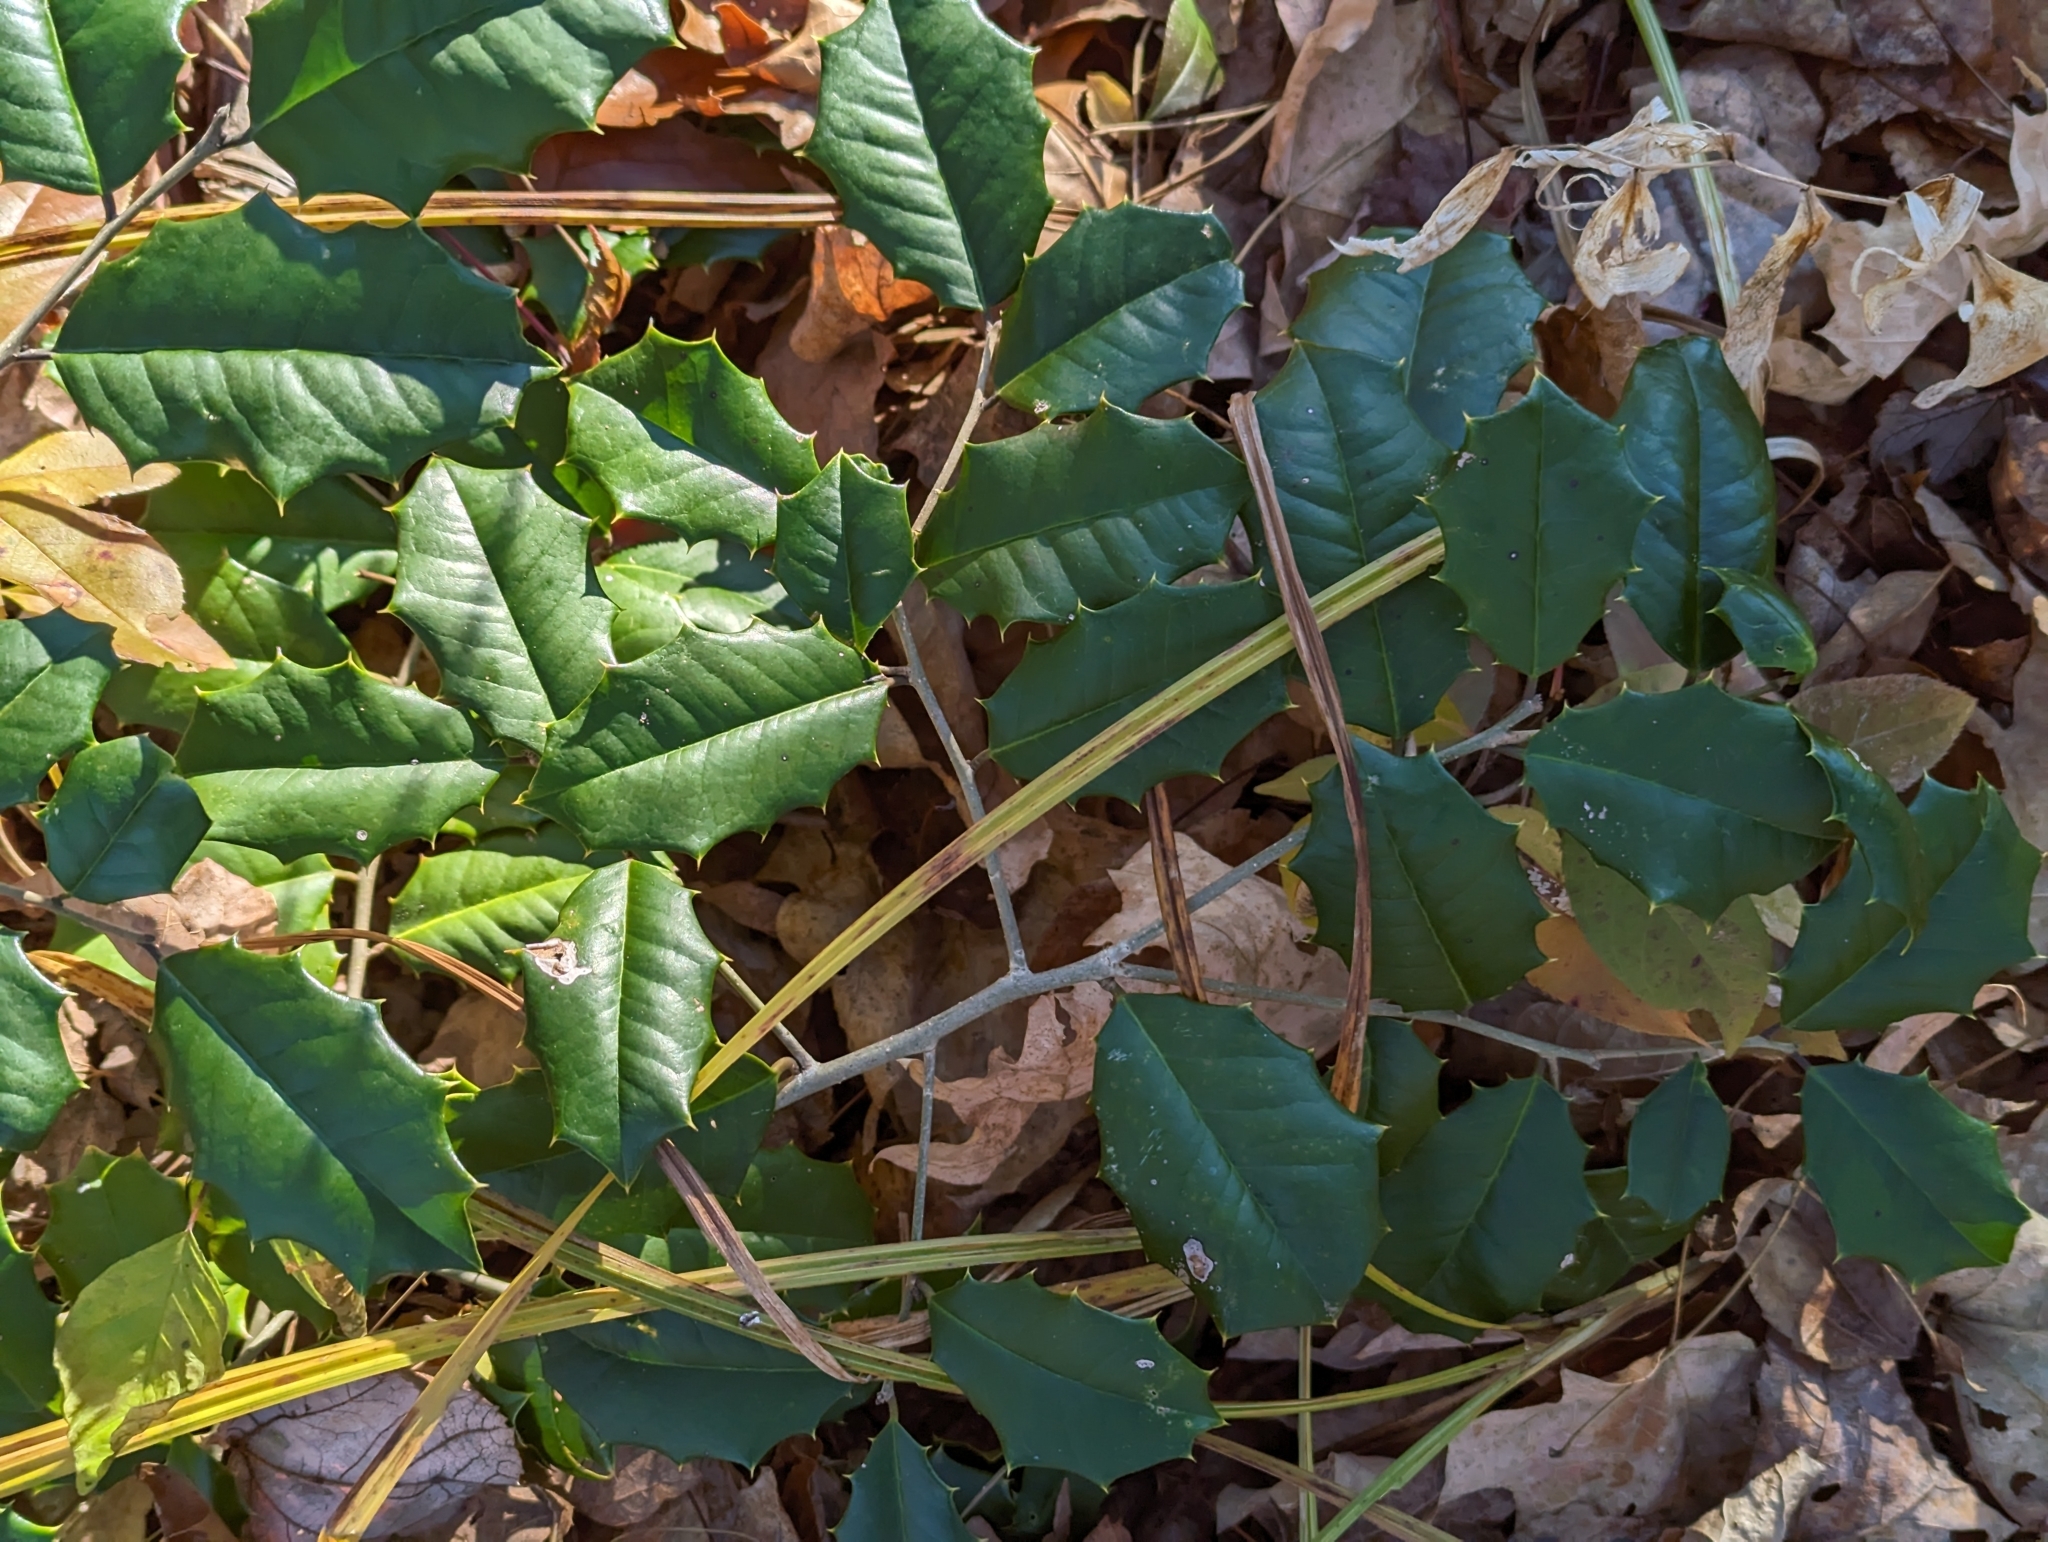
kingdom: Plantae
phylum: Tracheophyta
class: Magnoliopsida
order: Aquifoliales
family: Aquifoliaceae
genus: Ilex
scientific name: Ilex opaca
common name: American holly
